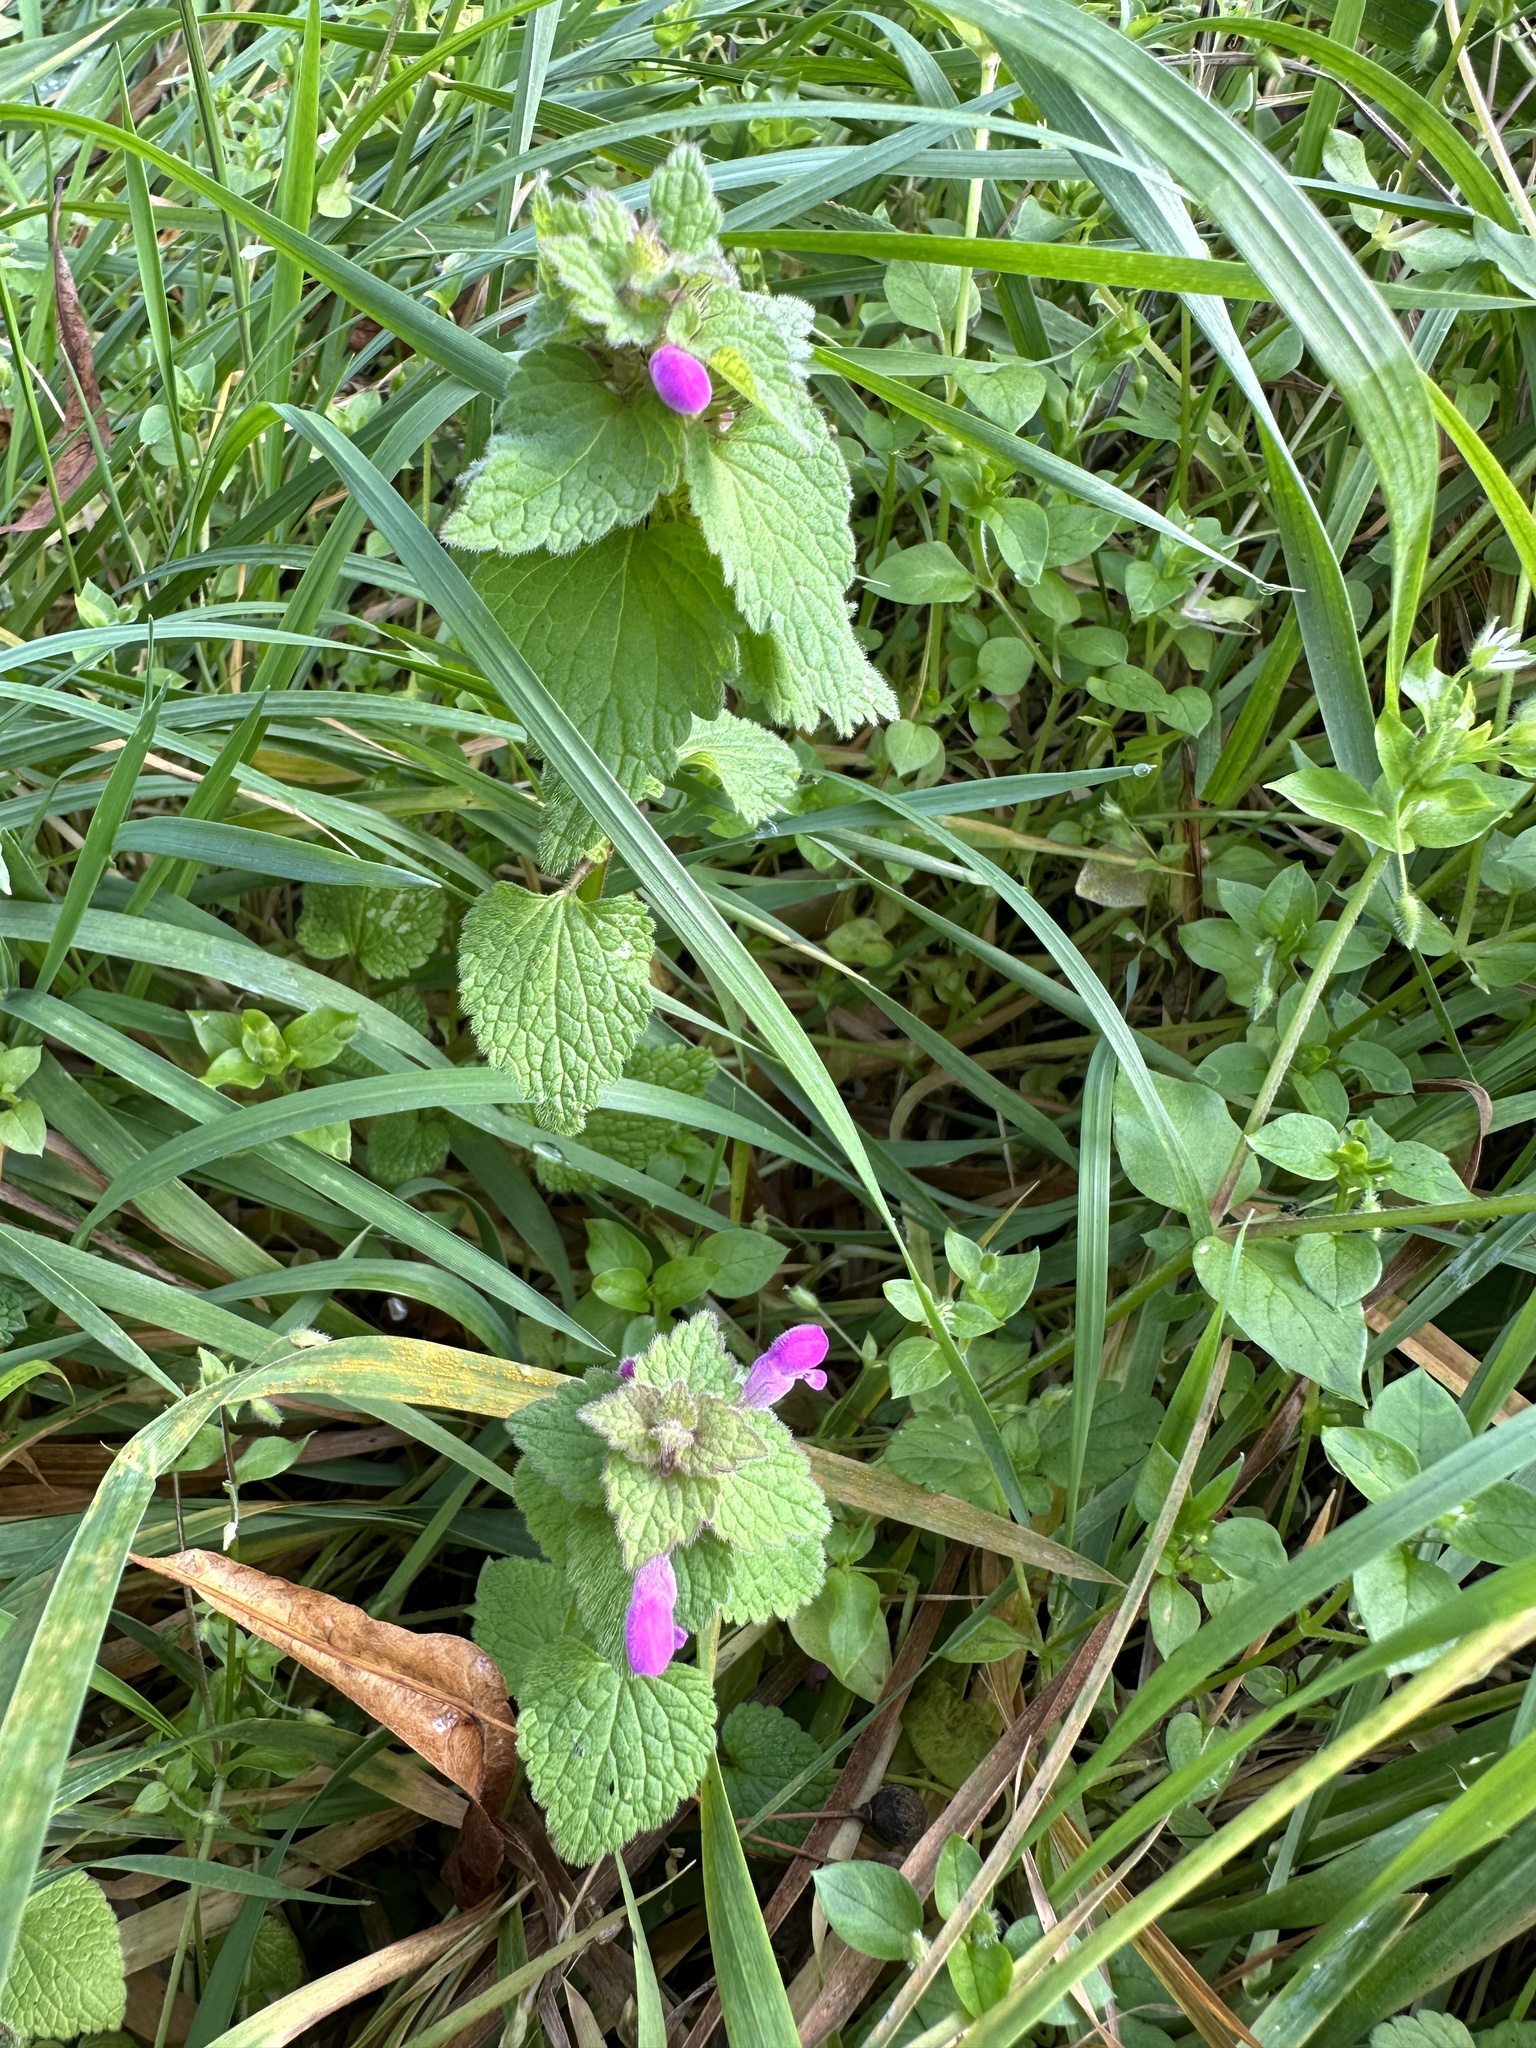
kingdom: Plantae
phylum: Tracheophyta
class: Magnoliopsida
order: Lamiales
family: Lamiaceae
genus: Lamium
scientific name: Lamium purpureum
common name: Red dead-nettle
